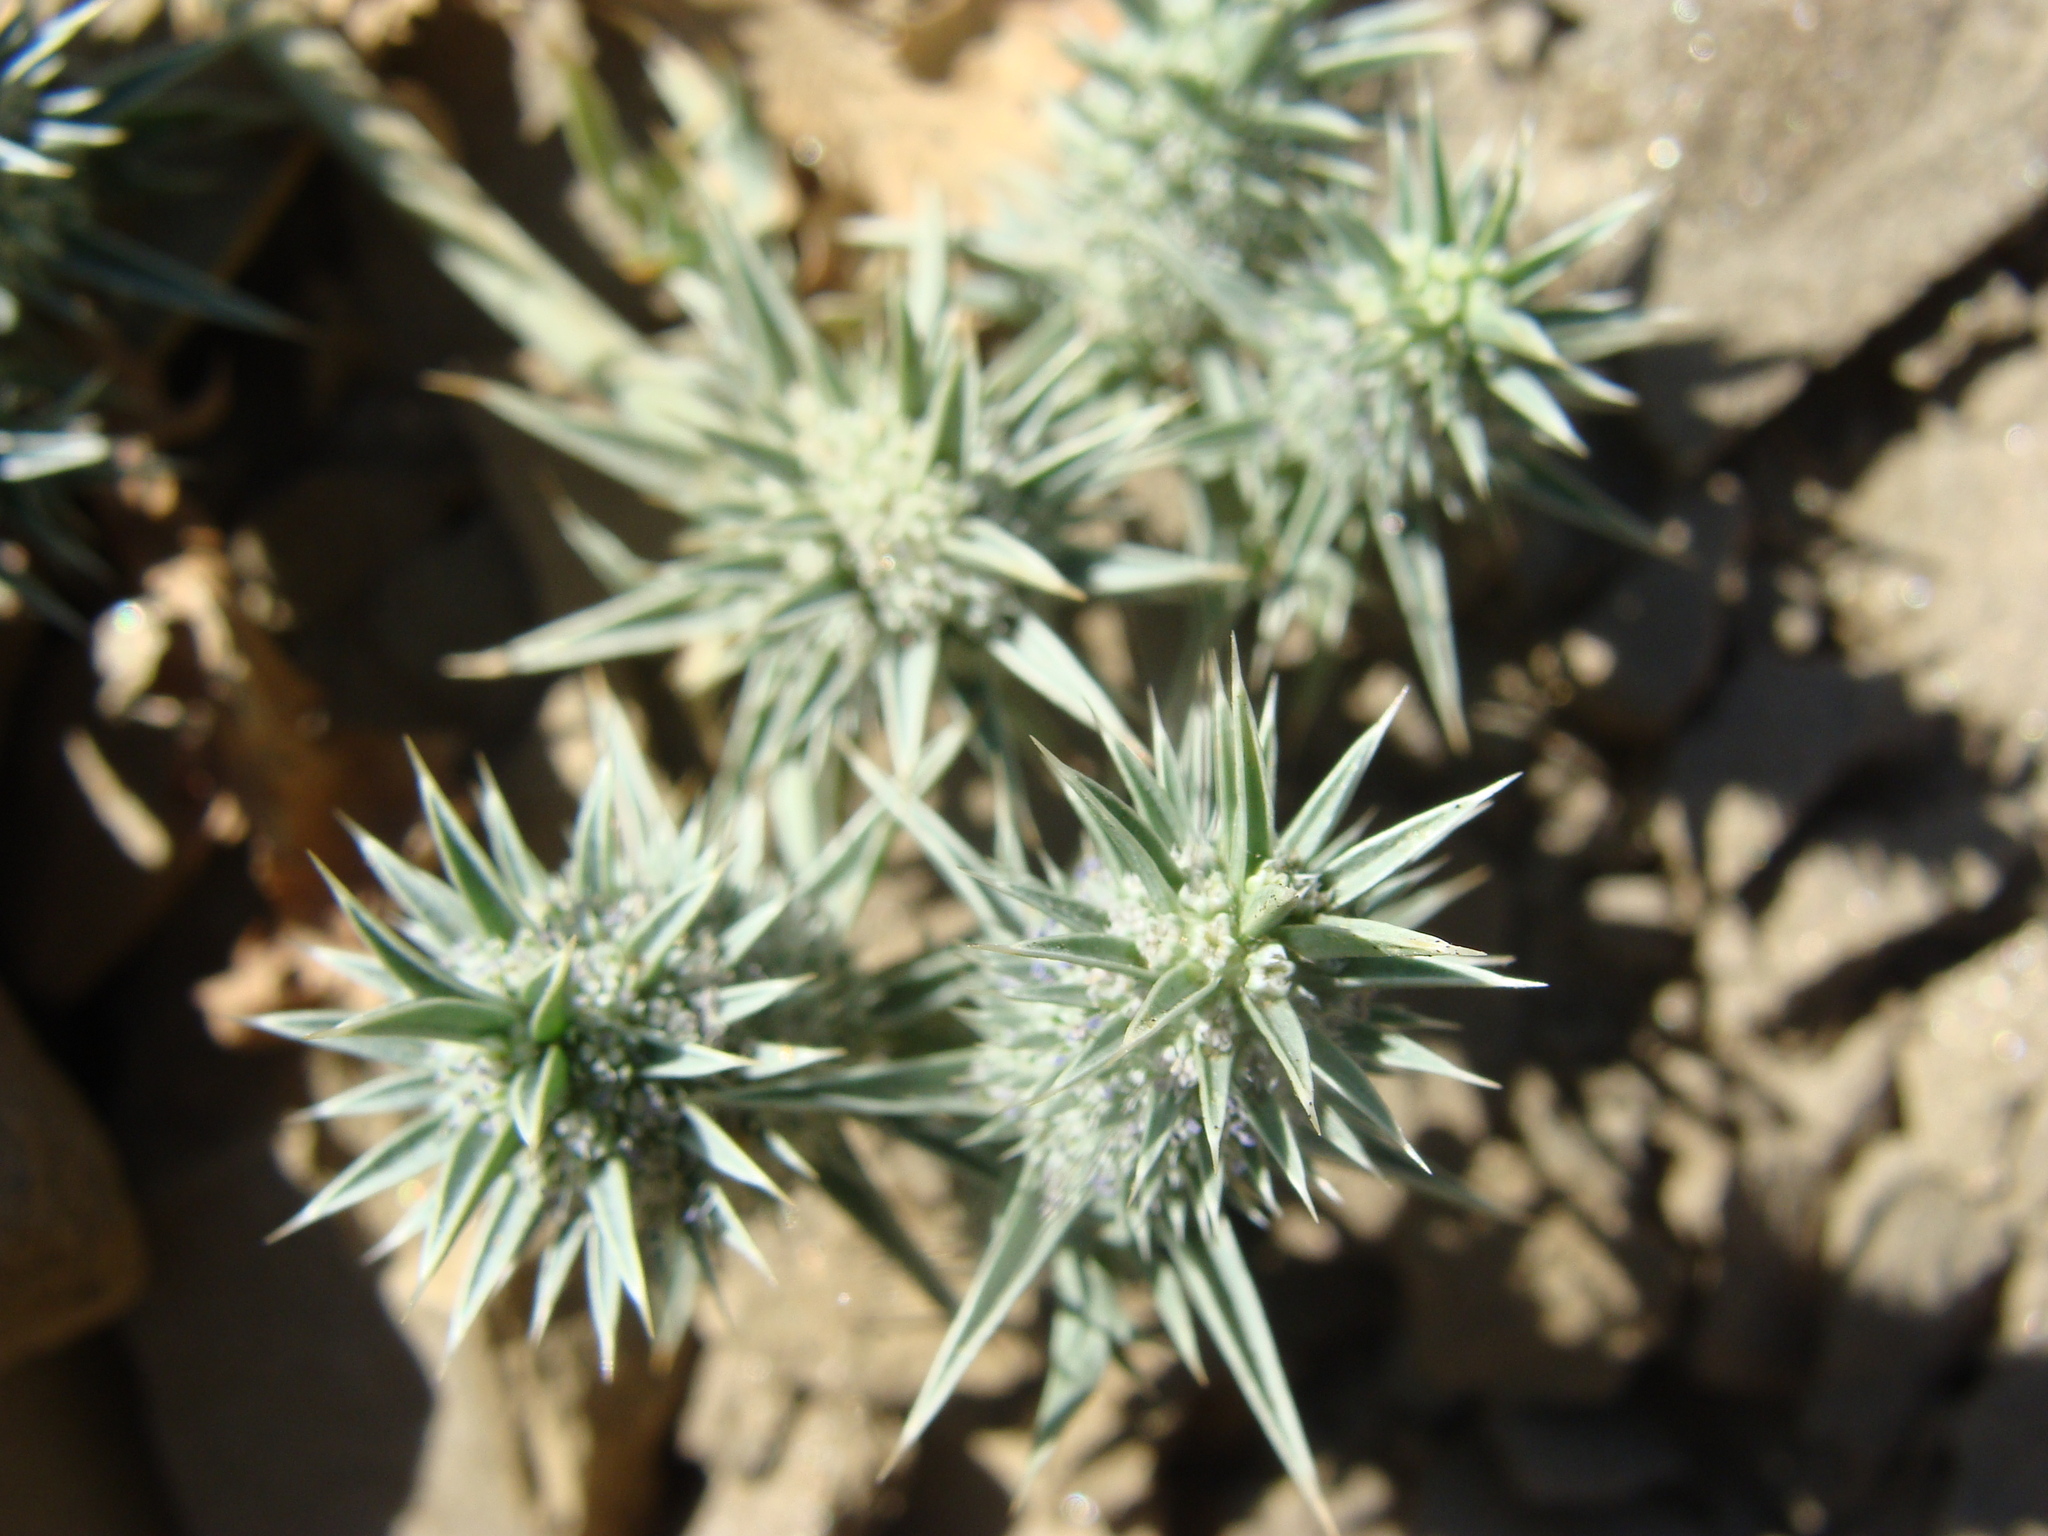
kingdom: Plantae
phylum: Tracheophyta
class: Magnoliopsida
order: Apiales
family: Apiaceae
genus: Eryngium
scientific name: Eryngium nasturtiifolium
